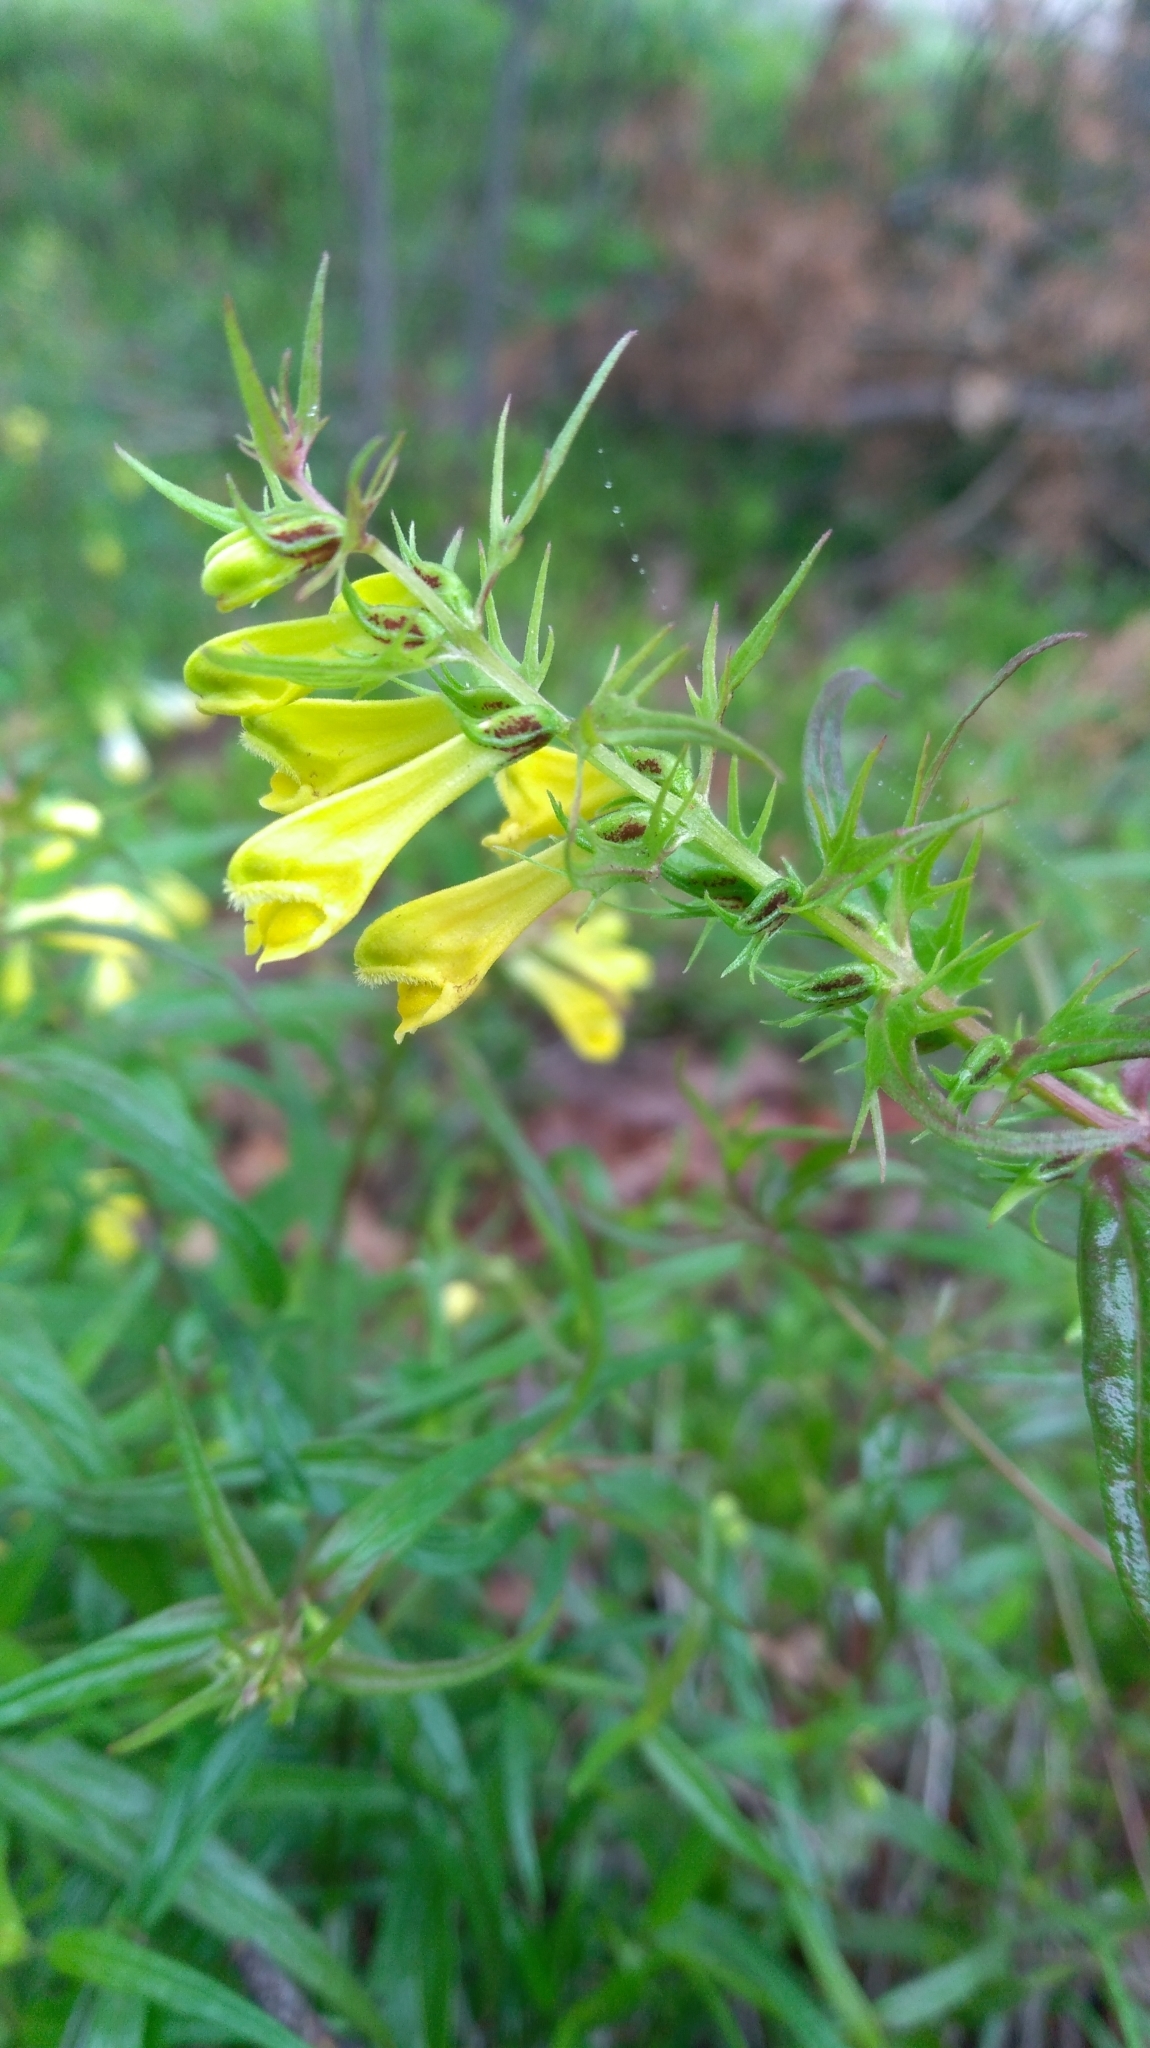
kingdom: Plantae
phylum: Tracheophyta
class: Magnoliopsida
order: Lamiales
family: Orobanchaceae
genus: Melampyrum
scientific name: Melampyrum pratense
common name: Common cow-wheat
